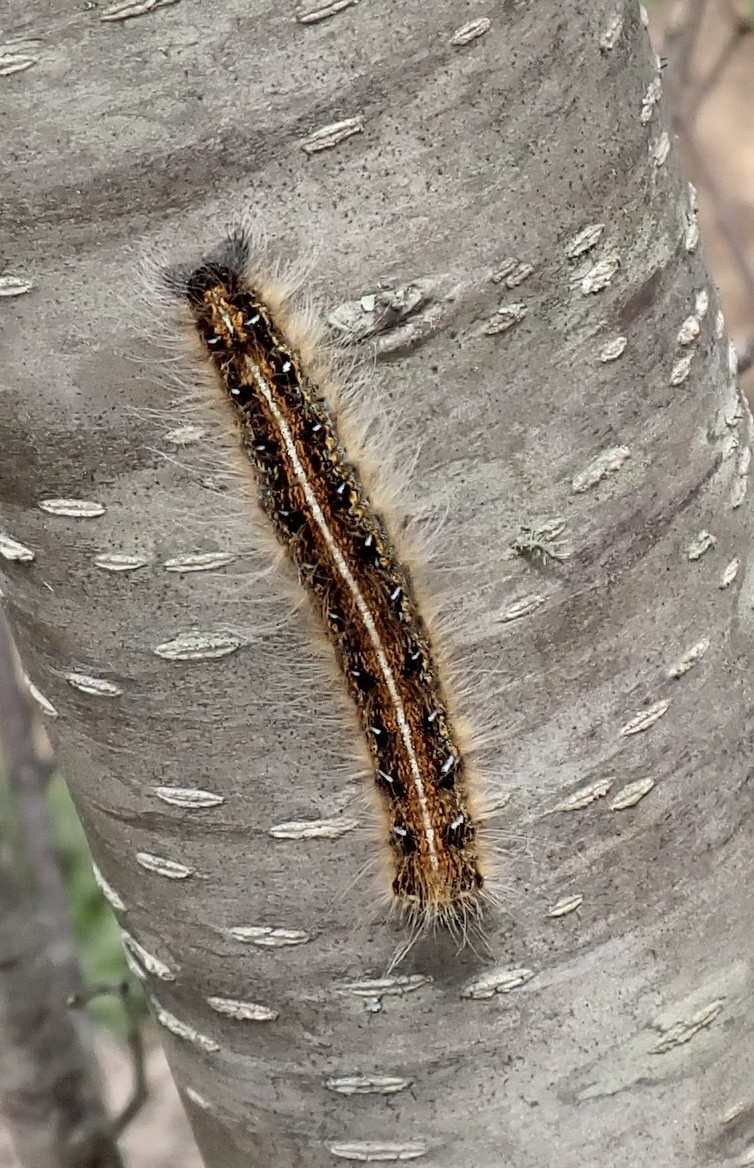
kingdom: Animalia
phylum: Arthropoda
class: Insecta
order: Lepidoptera
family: Lasiocampidae
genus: Malacosoma
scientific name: Malacosoma americana
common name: Eastern tent caterpillar moth
